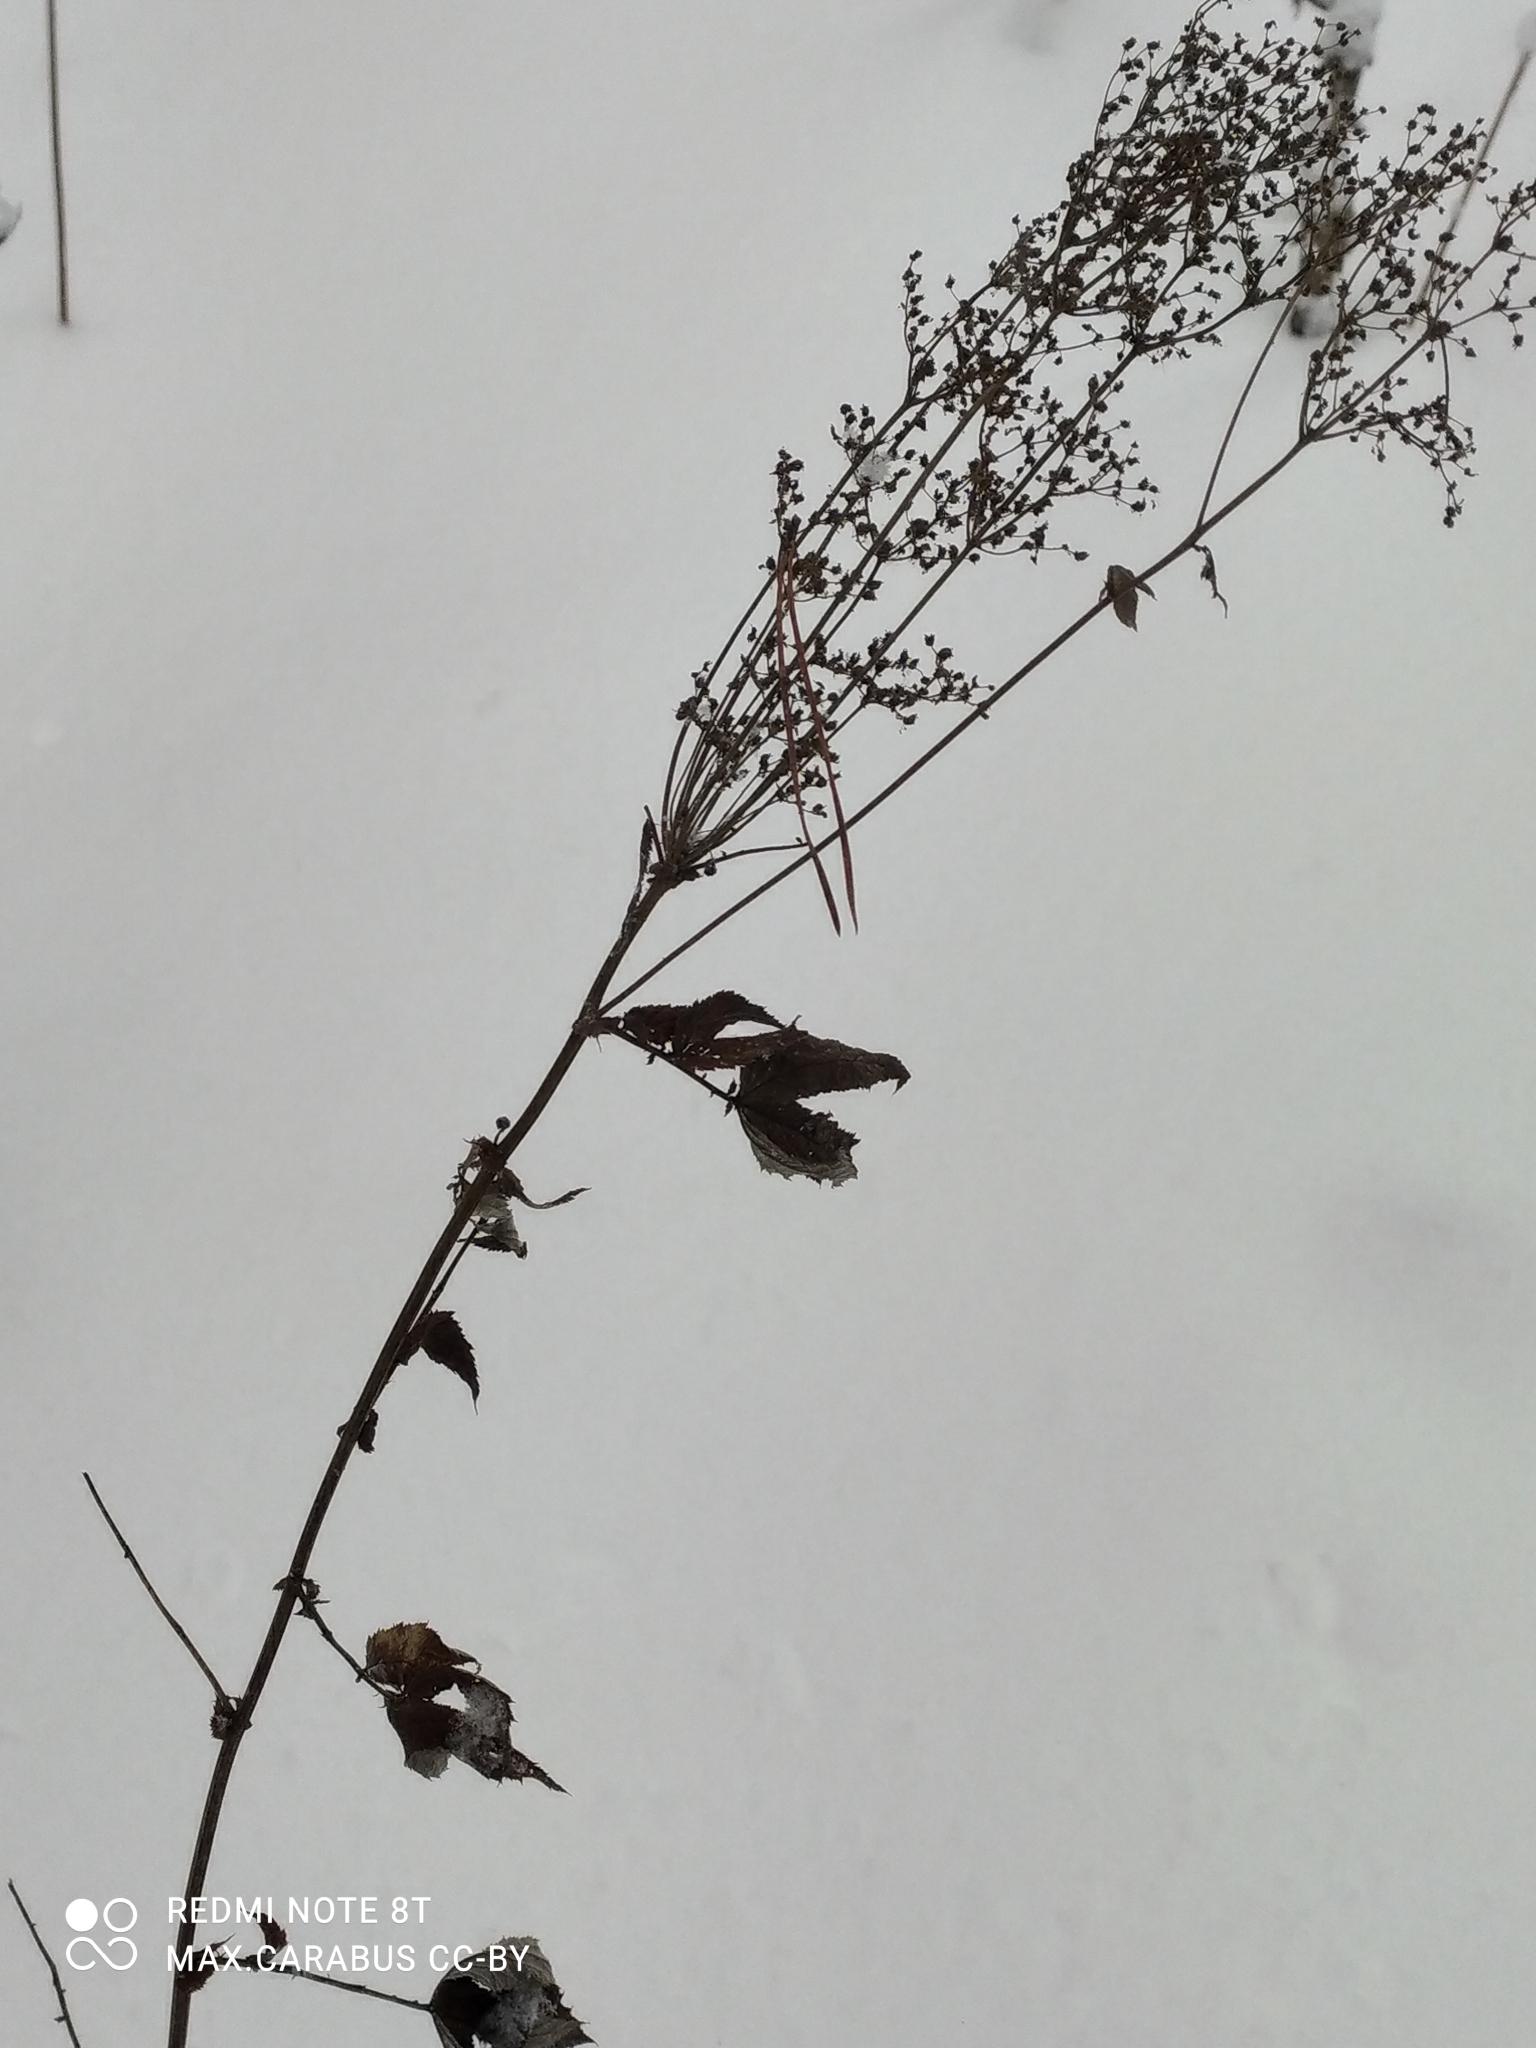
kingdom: Plantae
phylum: Tracheophyta
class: Magnoliopsida
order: Rosales
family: Rosaceae
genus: Filipendula
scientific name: Filipendula ulmaria
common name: Meadowsweet
